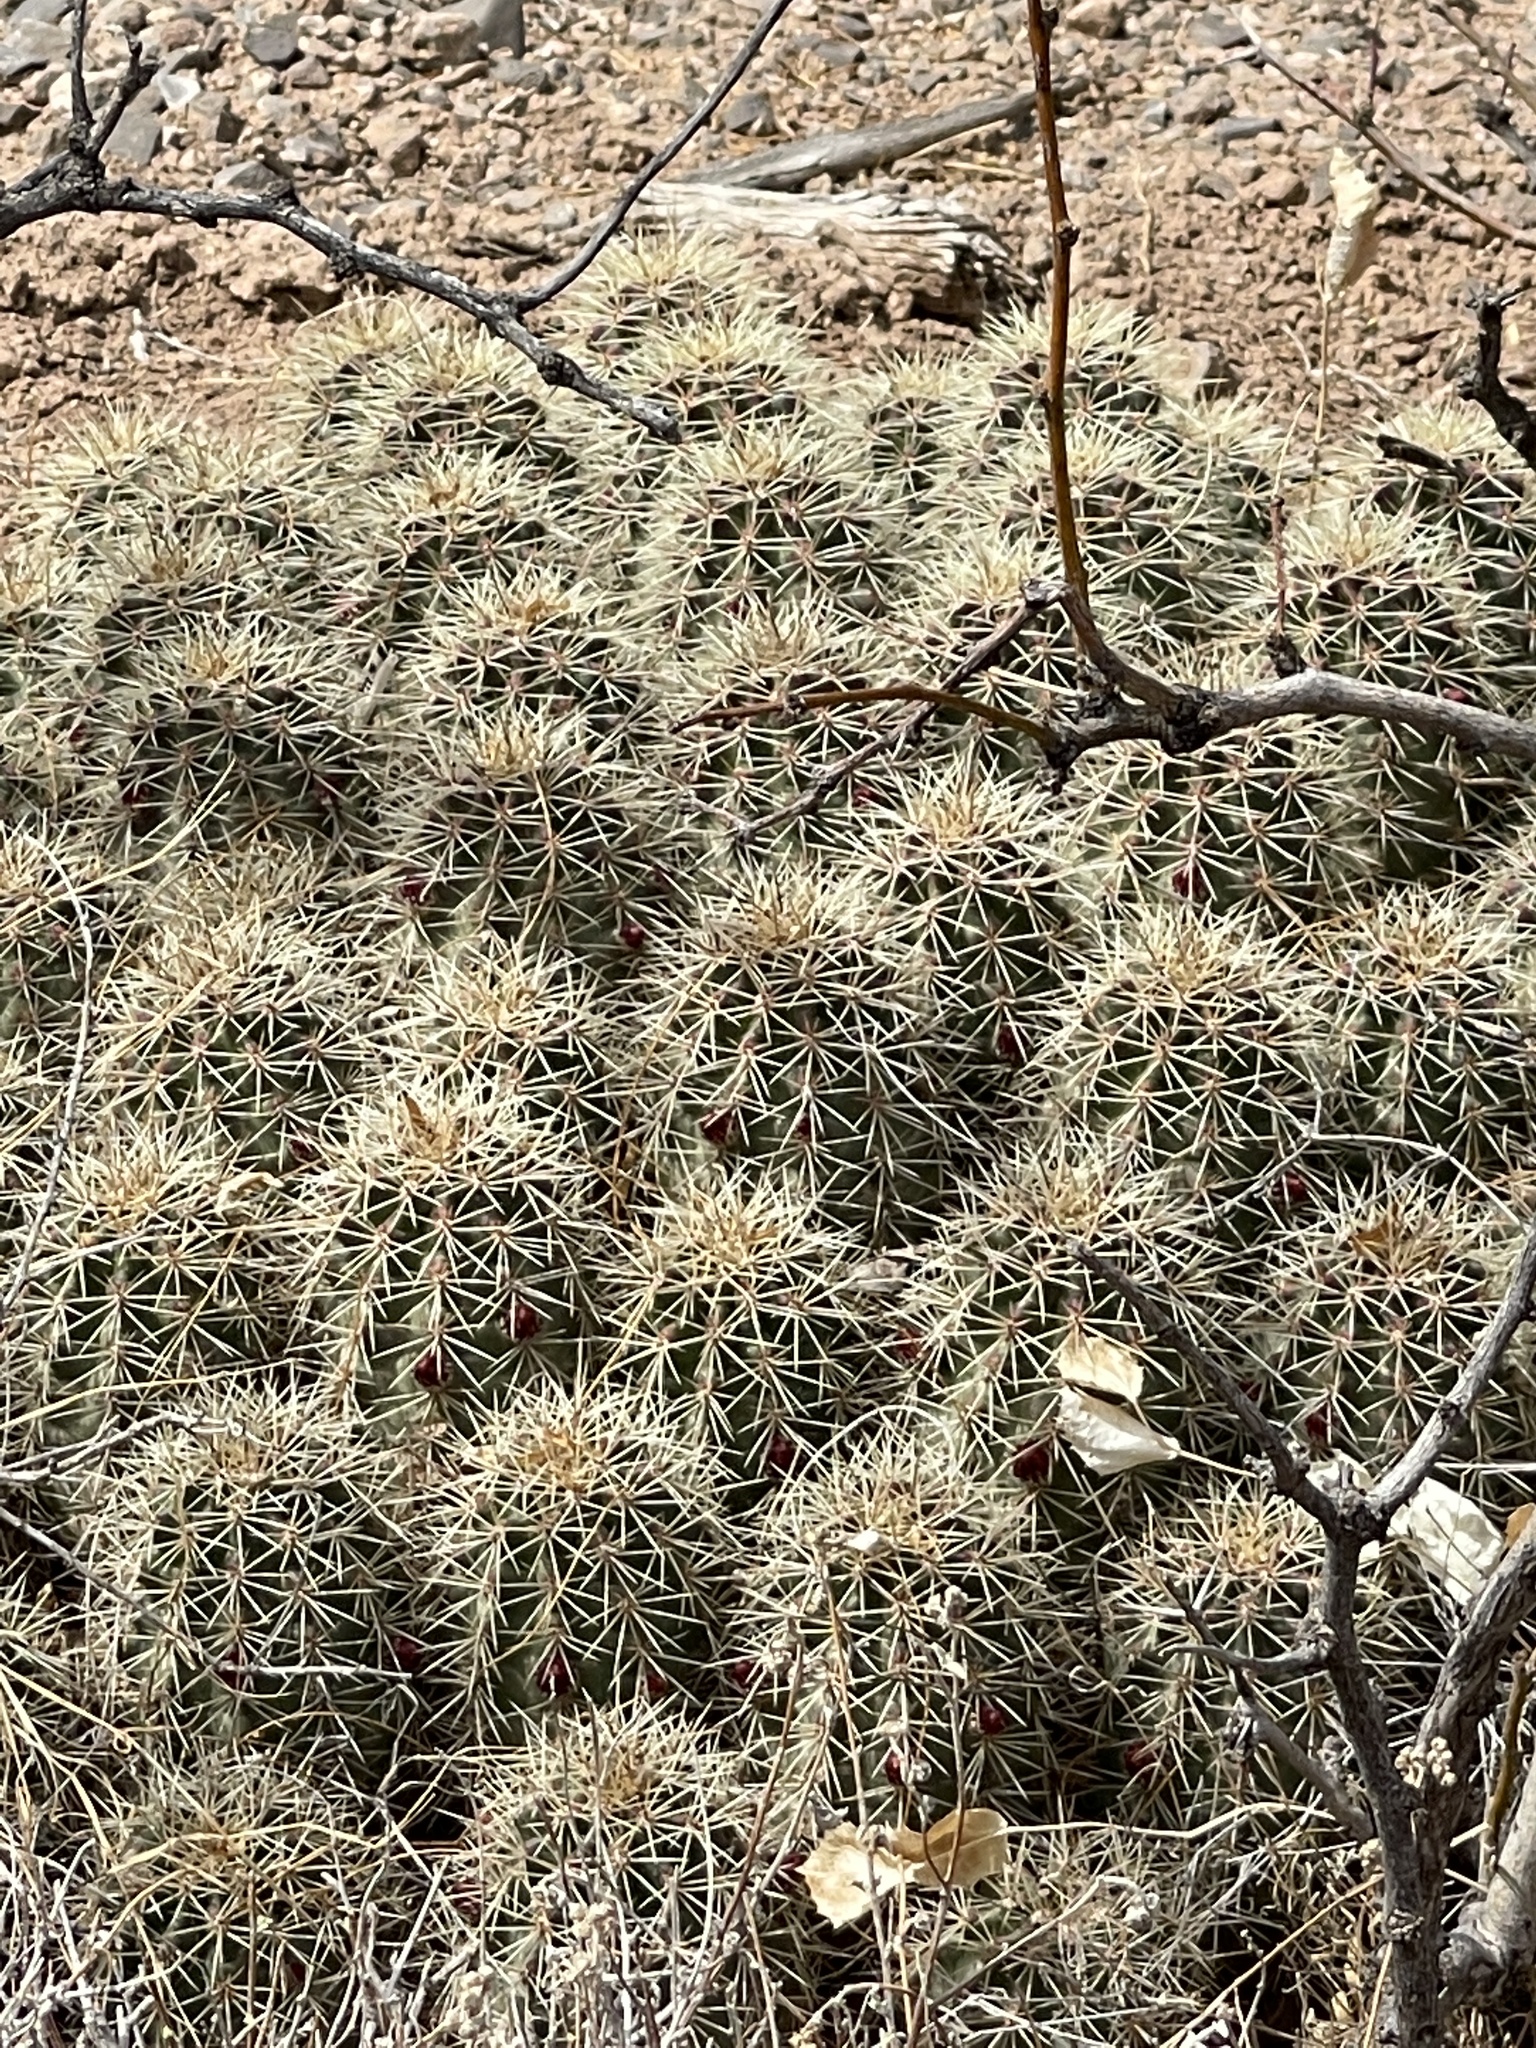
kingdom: Plantae
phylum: Tracheophyta
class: Magnoliopsida
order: Caryophyllales
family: Cactaceae
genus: Echinocereus
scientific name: Echinocereus coccineus
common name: Scarlet hedgehog cactus
